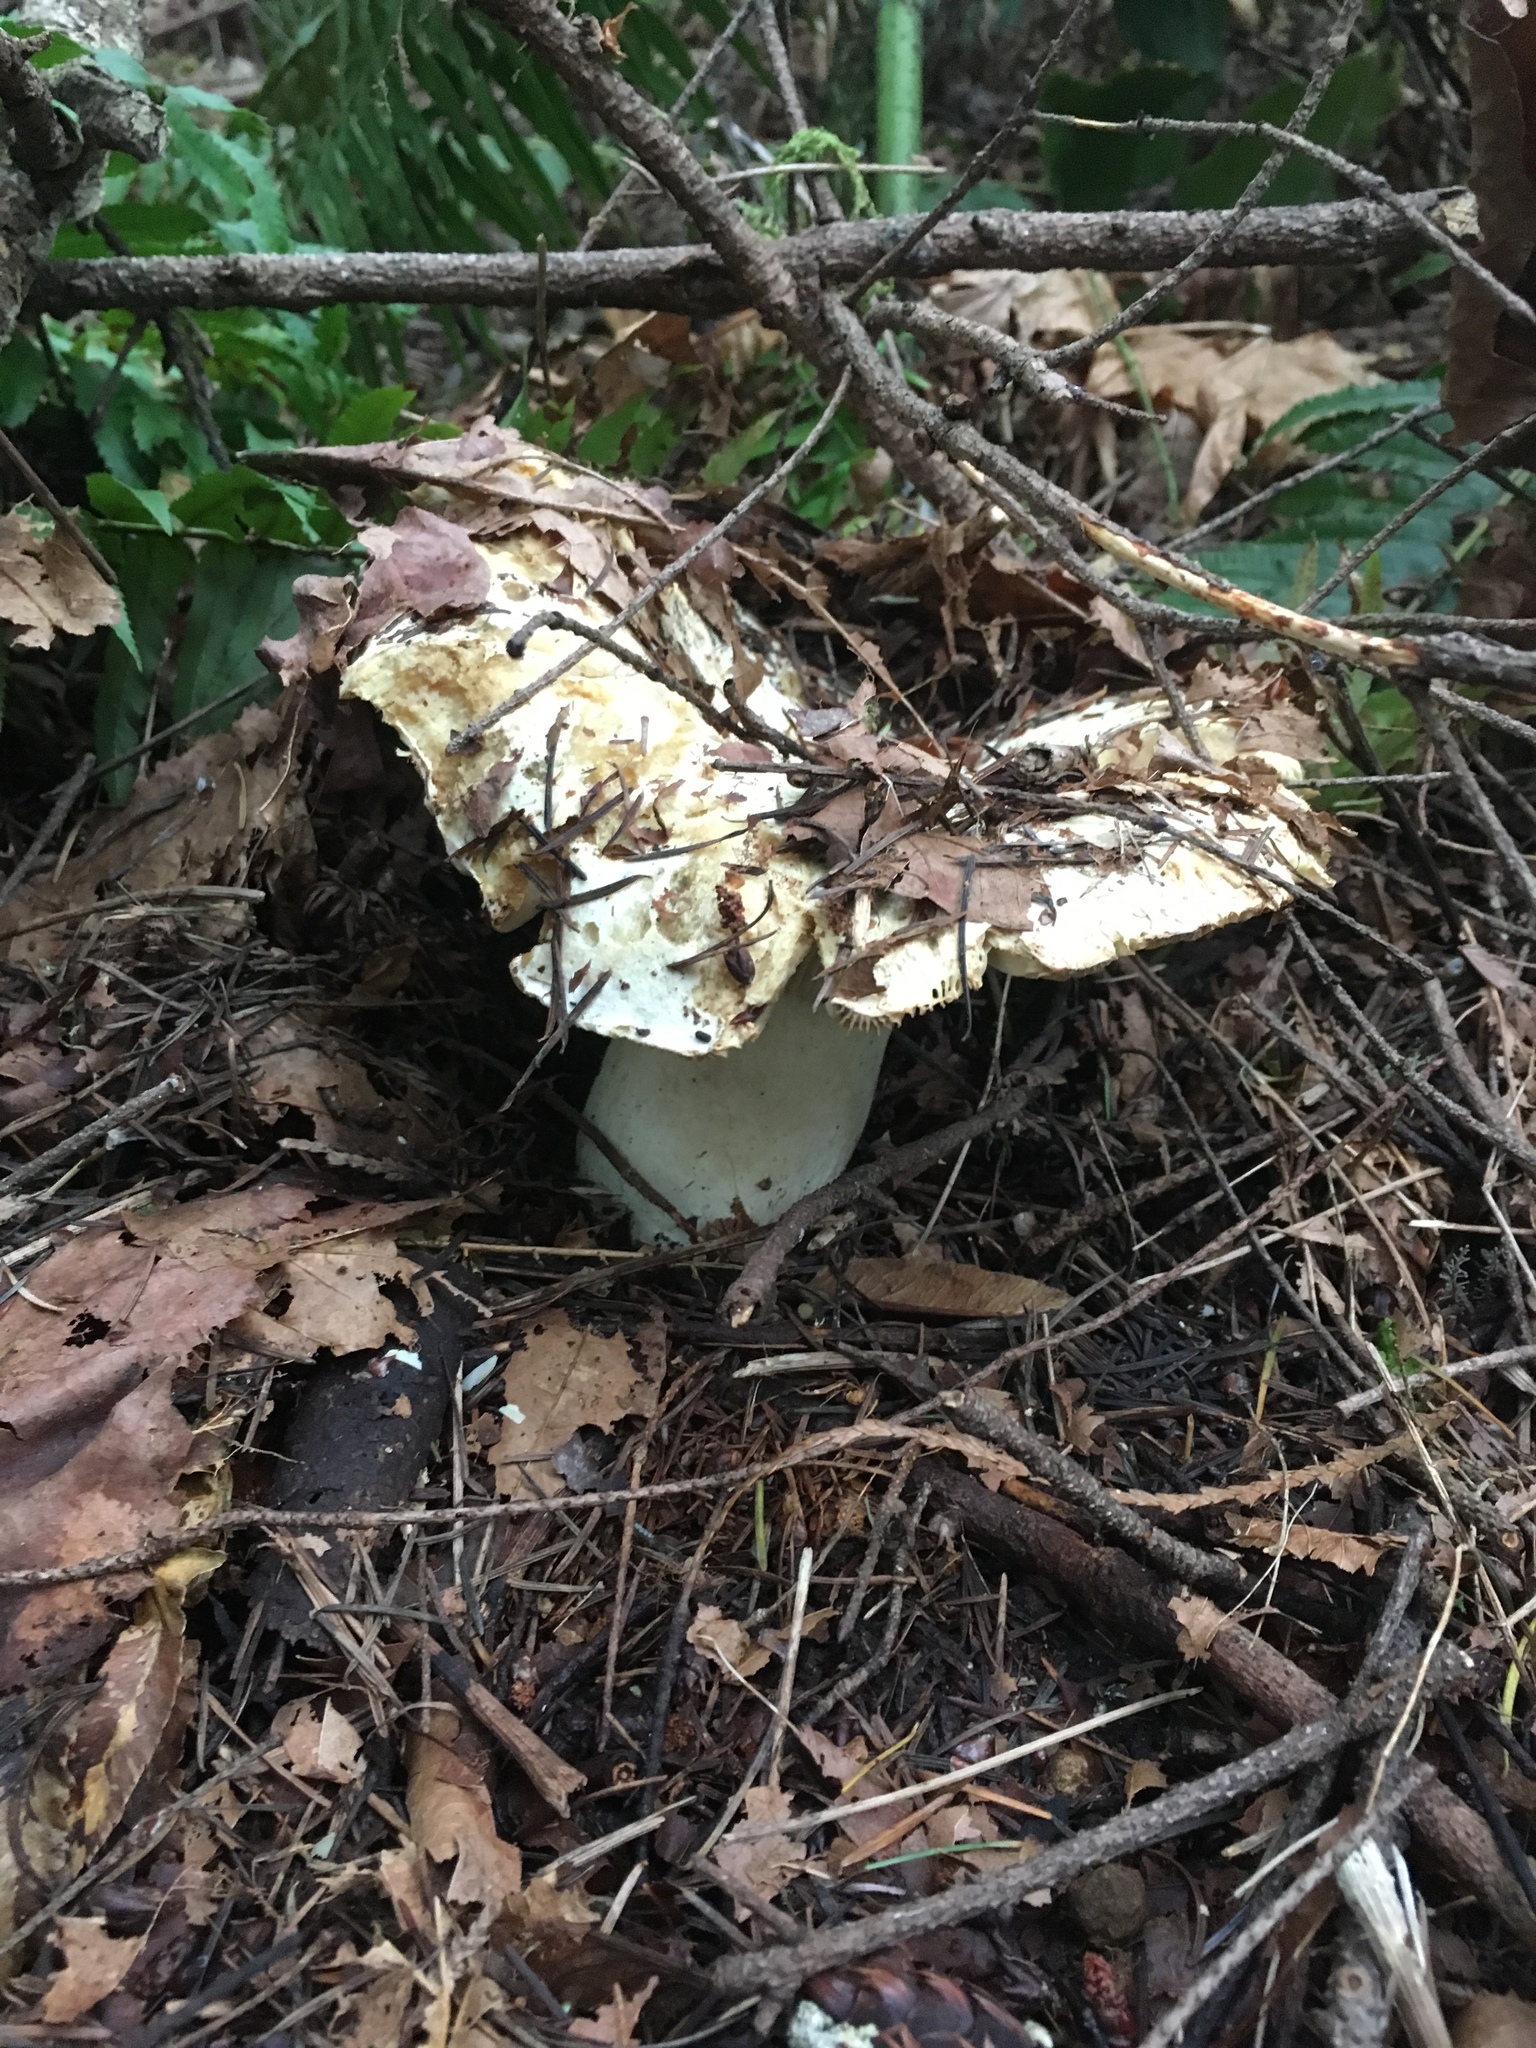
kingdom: Fungi
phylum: Basidiomycota
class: Agaricomycetes
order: Russulales
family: Russulaceae
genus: Russula
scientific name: Russula brevipes
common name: Short-stemmed russula
